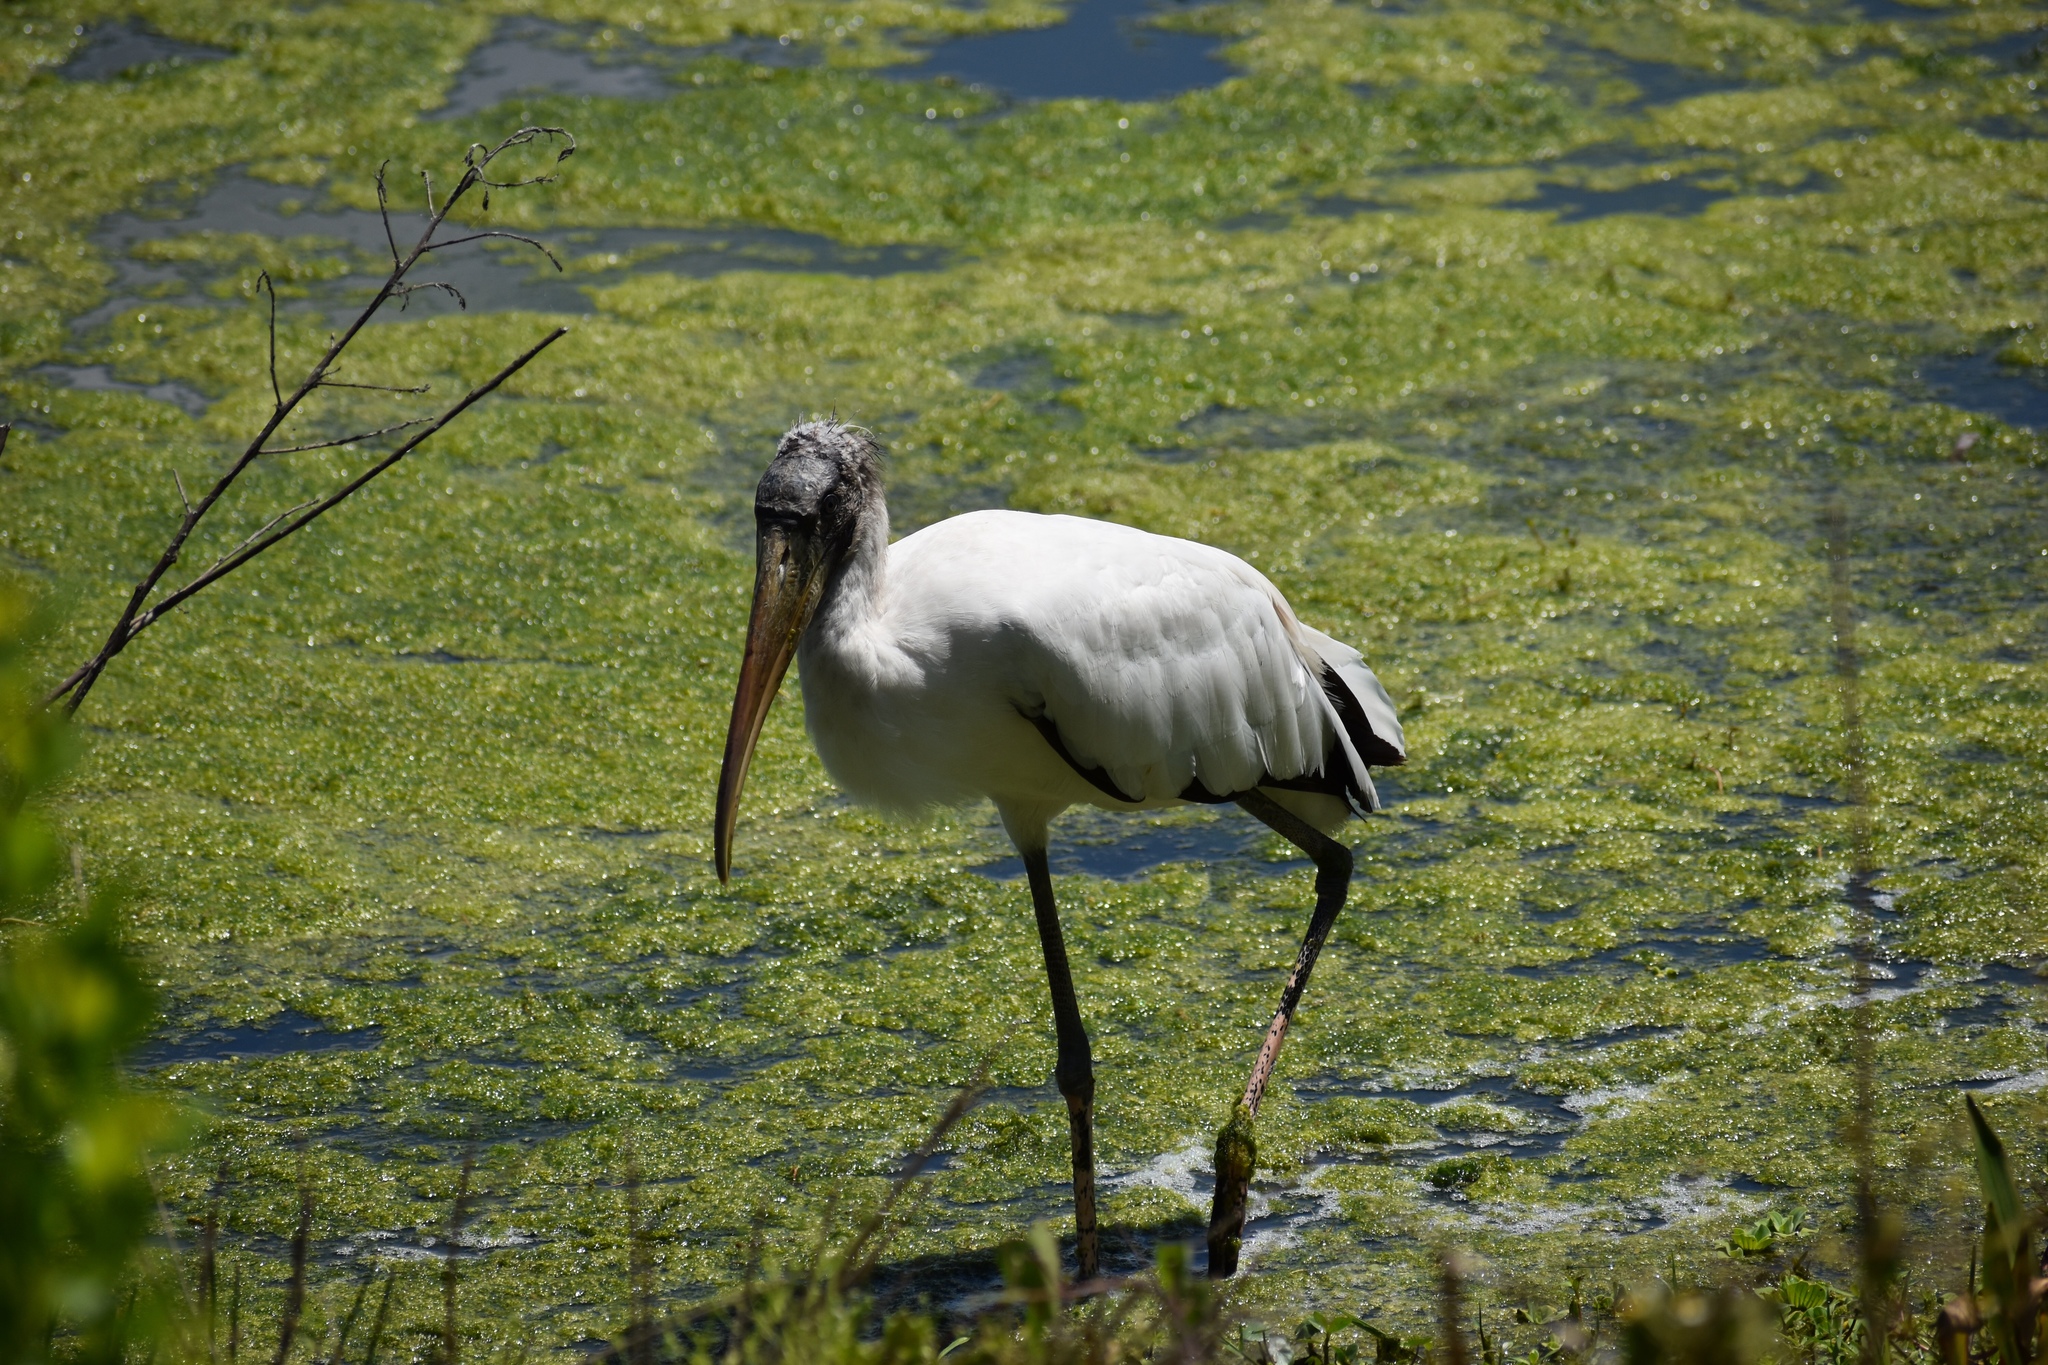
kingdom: Animalia
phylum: Chordata
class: Aves
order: Ciconiiformes
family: Ciconiidae
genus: Mycteria
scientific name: Mycteria americana
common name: Wood stork
